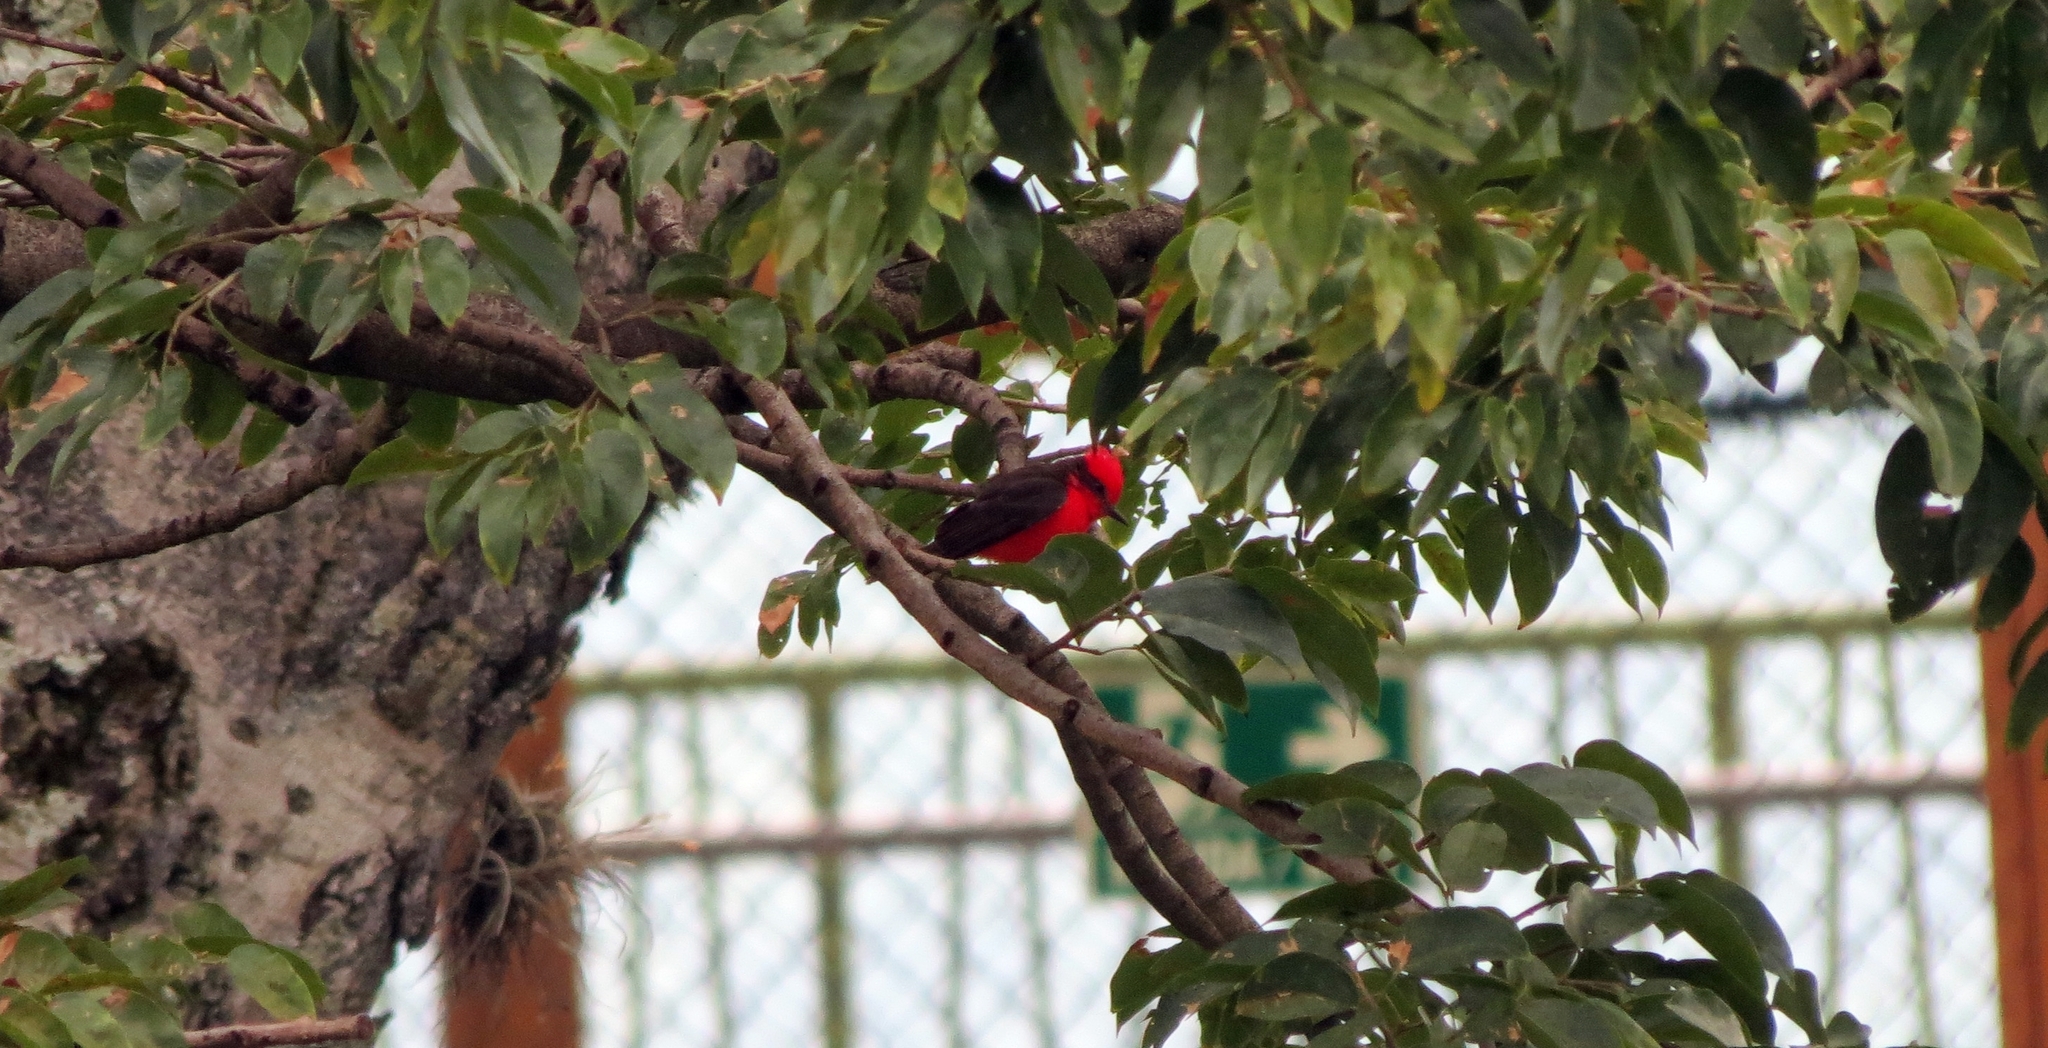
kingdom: Animalia
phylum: Chordata
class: Aves
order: Passeriformes
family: Tyrannidae
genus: Pyrocephalus
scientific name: Pyrocephalus rubinus
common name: Vermilion flycatcher
